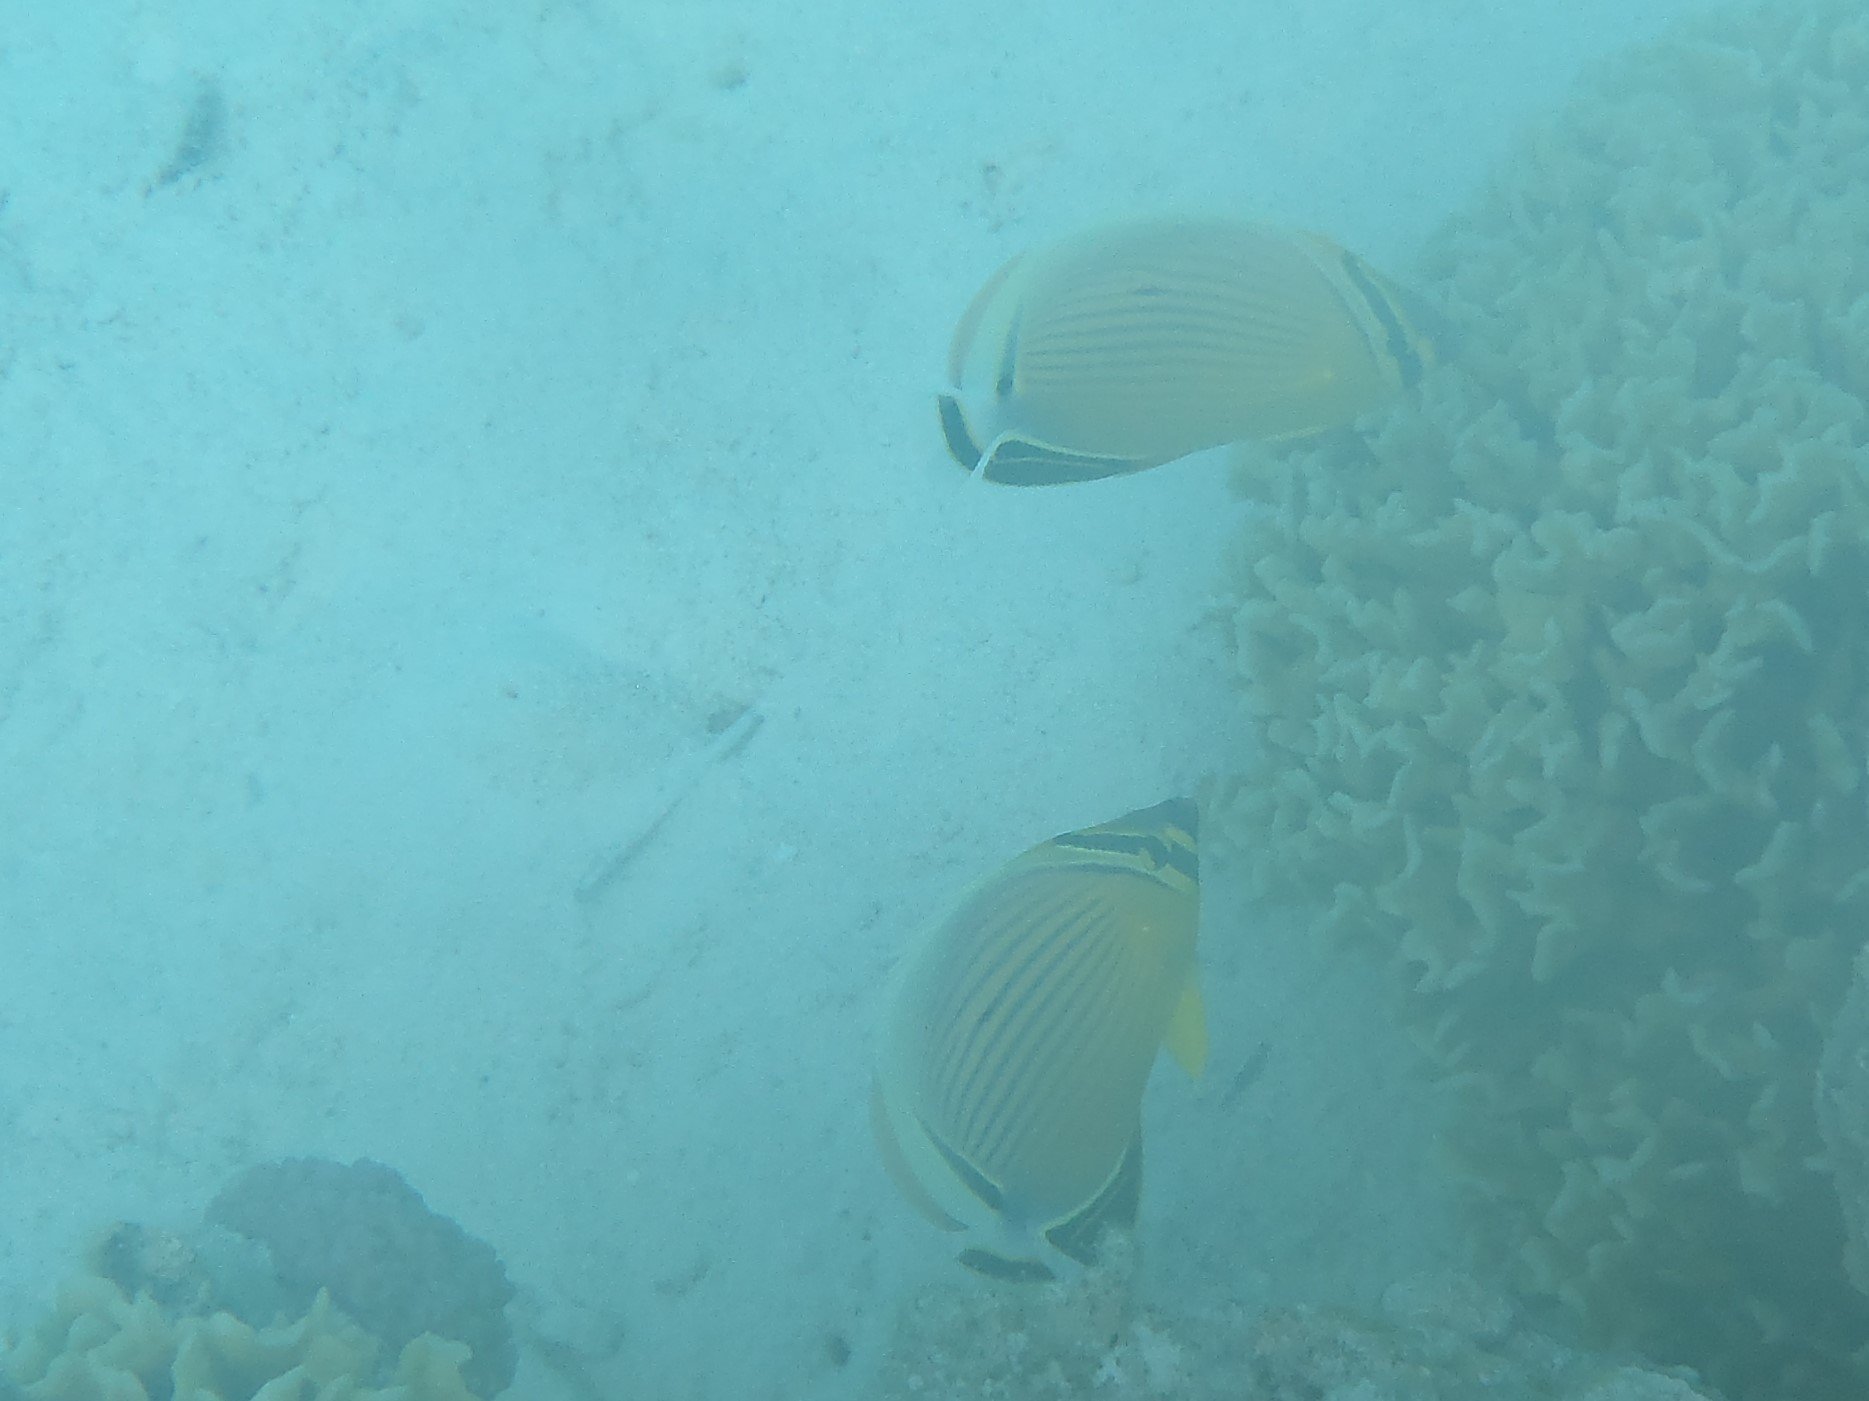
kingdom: Animalia
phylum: Chordata
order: Perciformes
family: Chaetodontidae
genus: Chaetodon
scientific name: Chaetodon lunulatus
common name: Redfin butterflyfish
